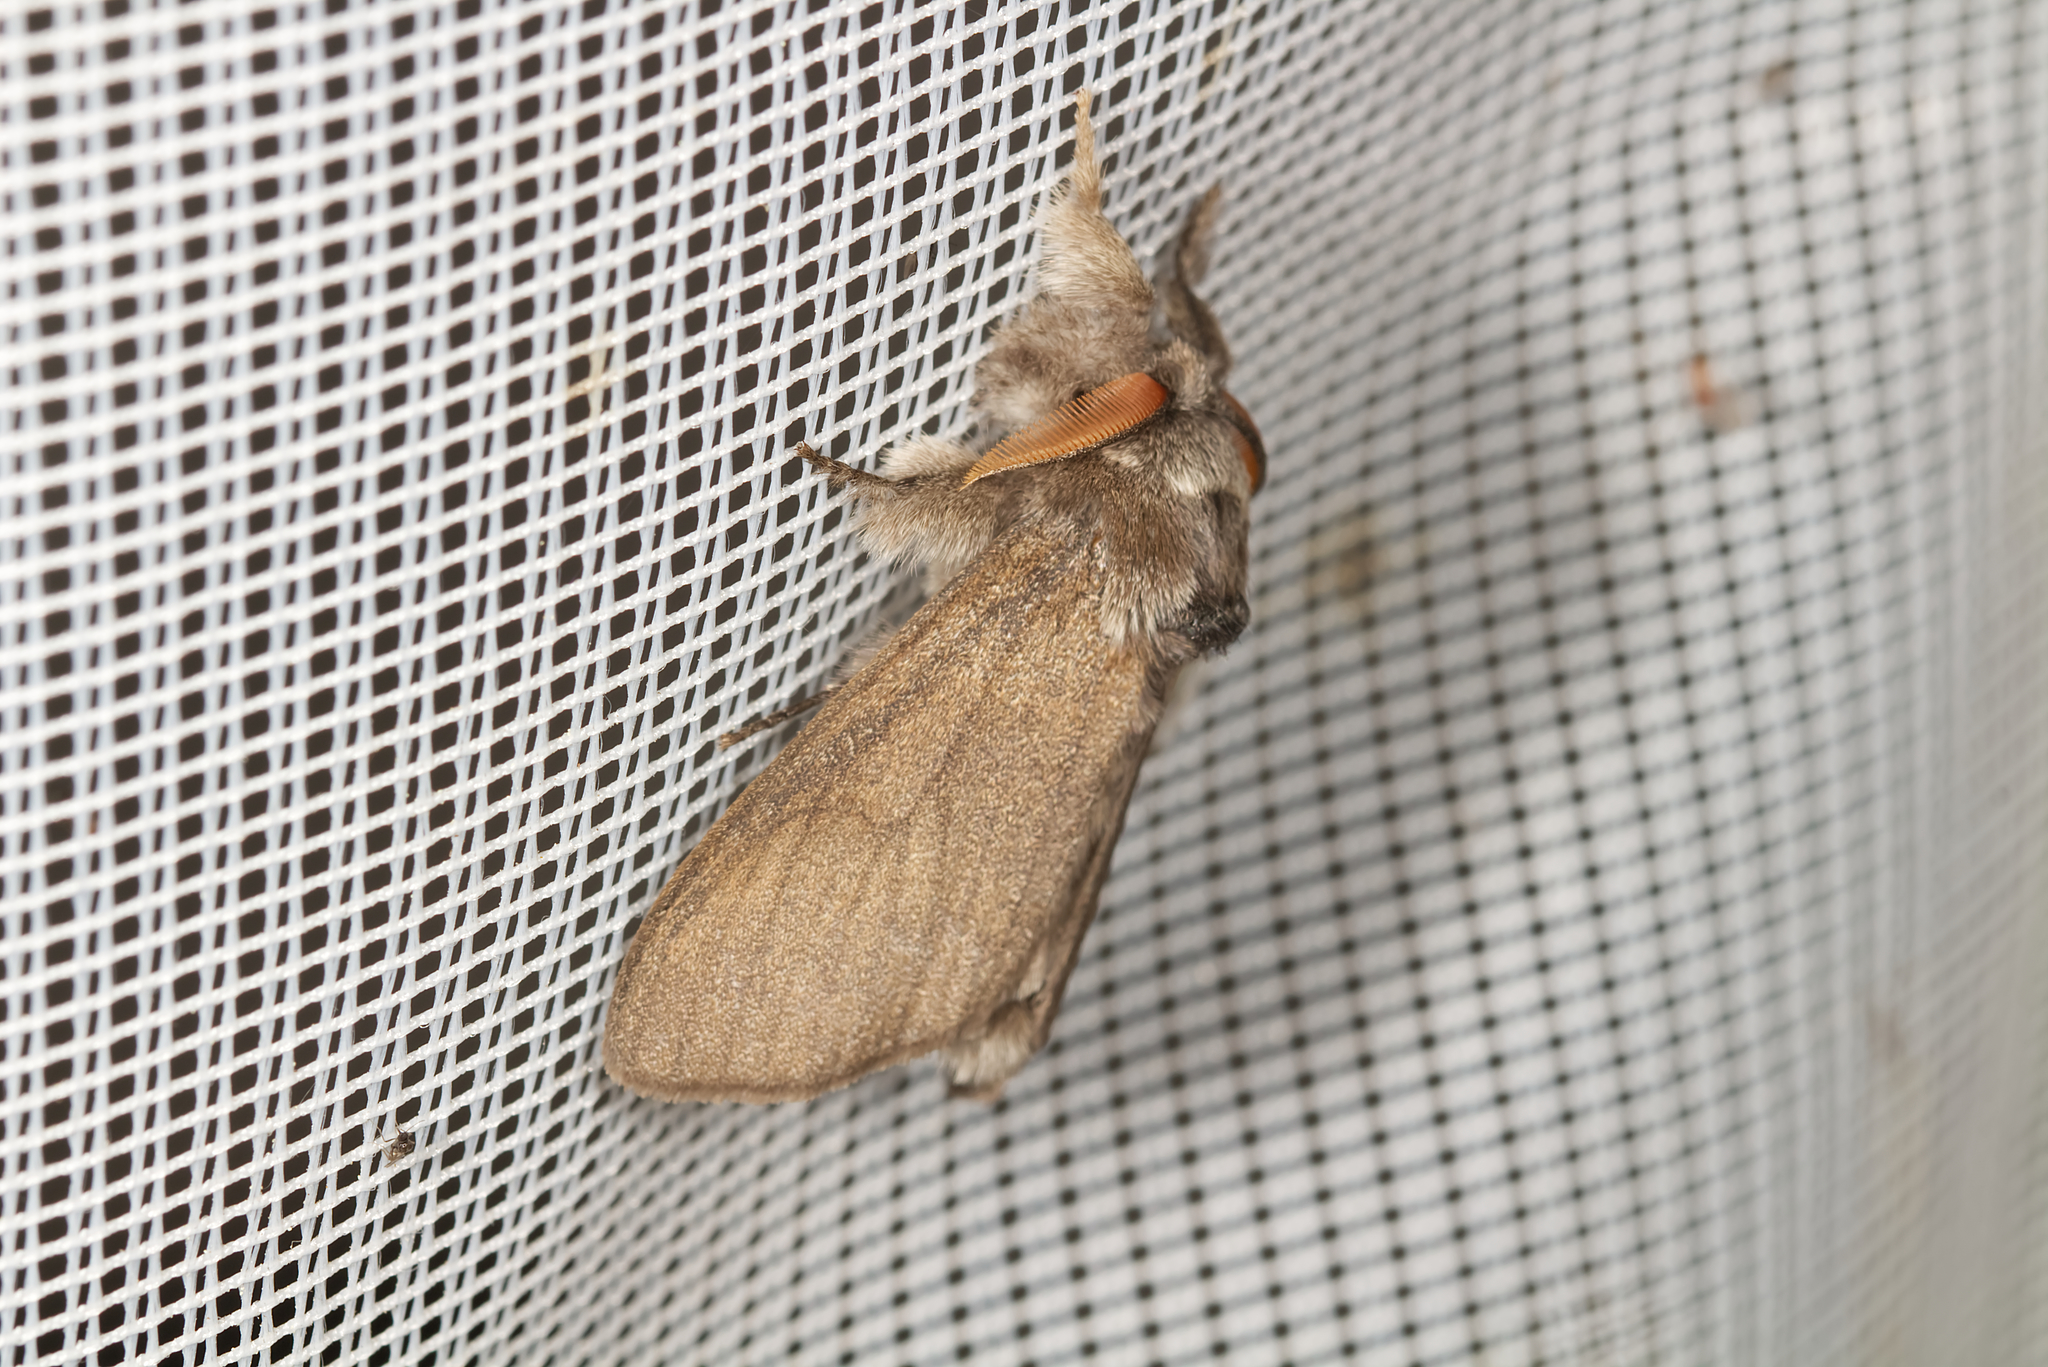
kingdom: Animalia
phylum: Arthropoda
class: Insecta
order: Lepidoptera
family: Erebidae
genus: Calliteara
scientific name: Calliteara pudibunda
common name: Pale tussock
